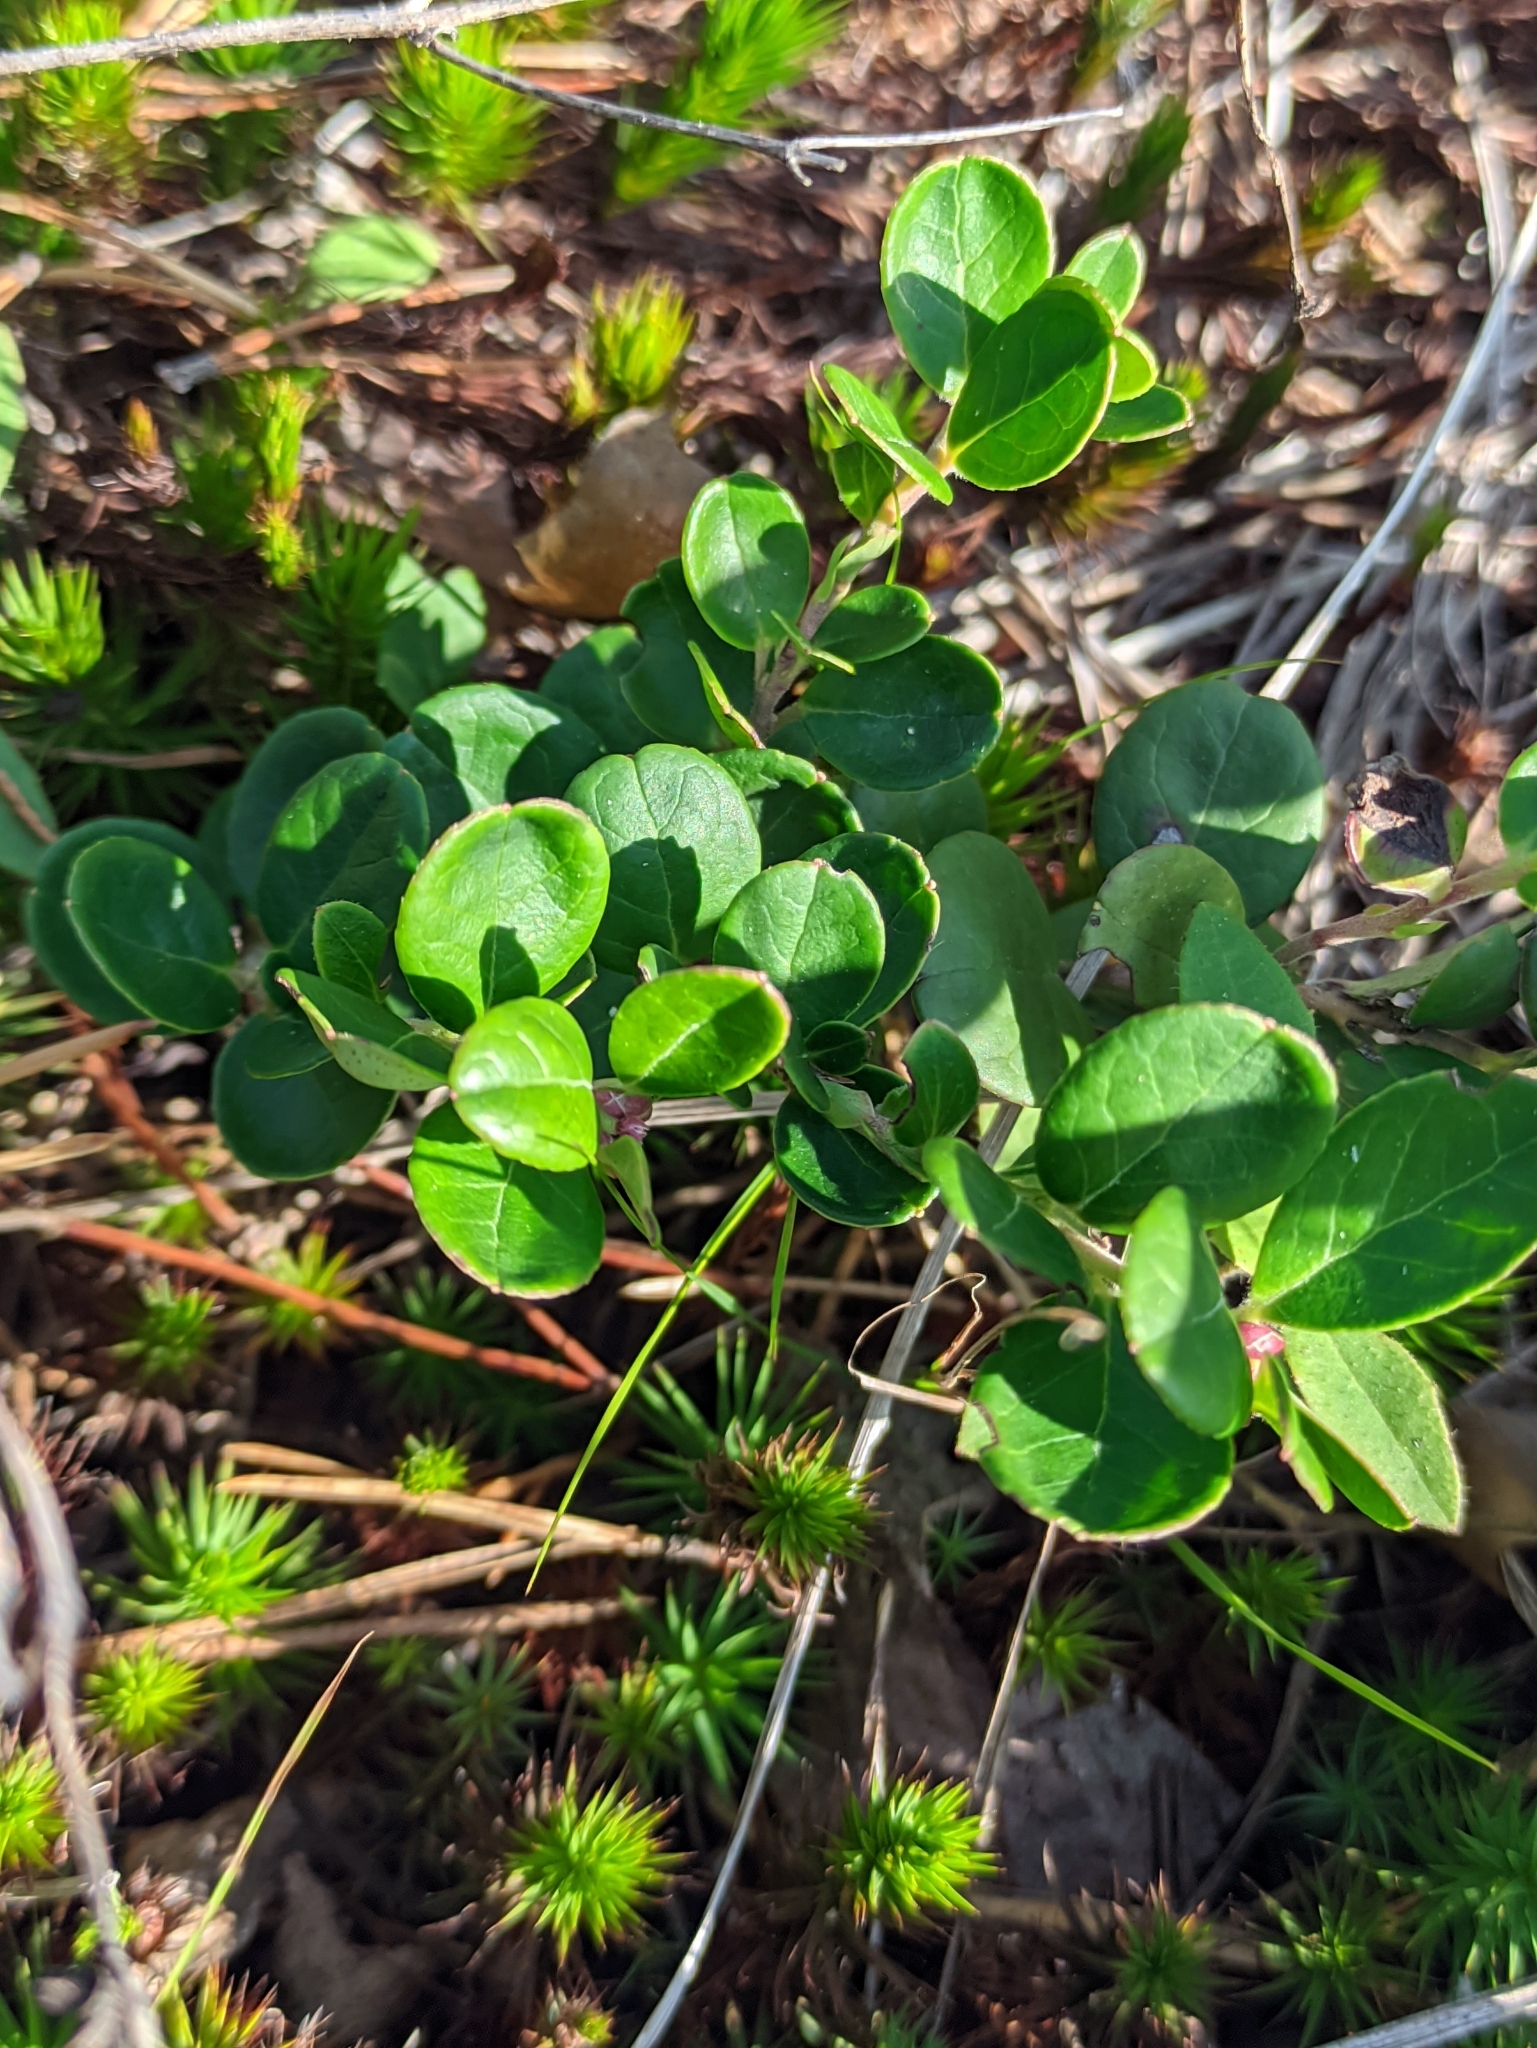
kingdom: Plantae
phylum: Tracheophyta
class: Magnoliopsida
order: Ericales
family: Ericaceae
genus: Vaccinium
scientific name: Vaccinium vitis-idaea
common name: Cowberry
